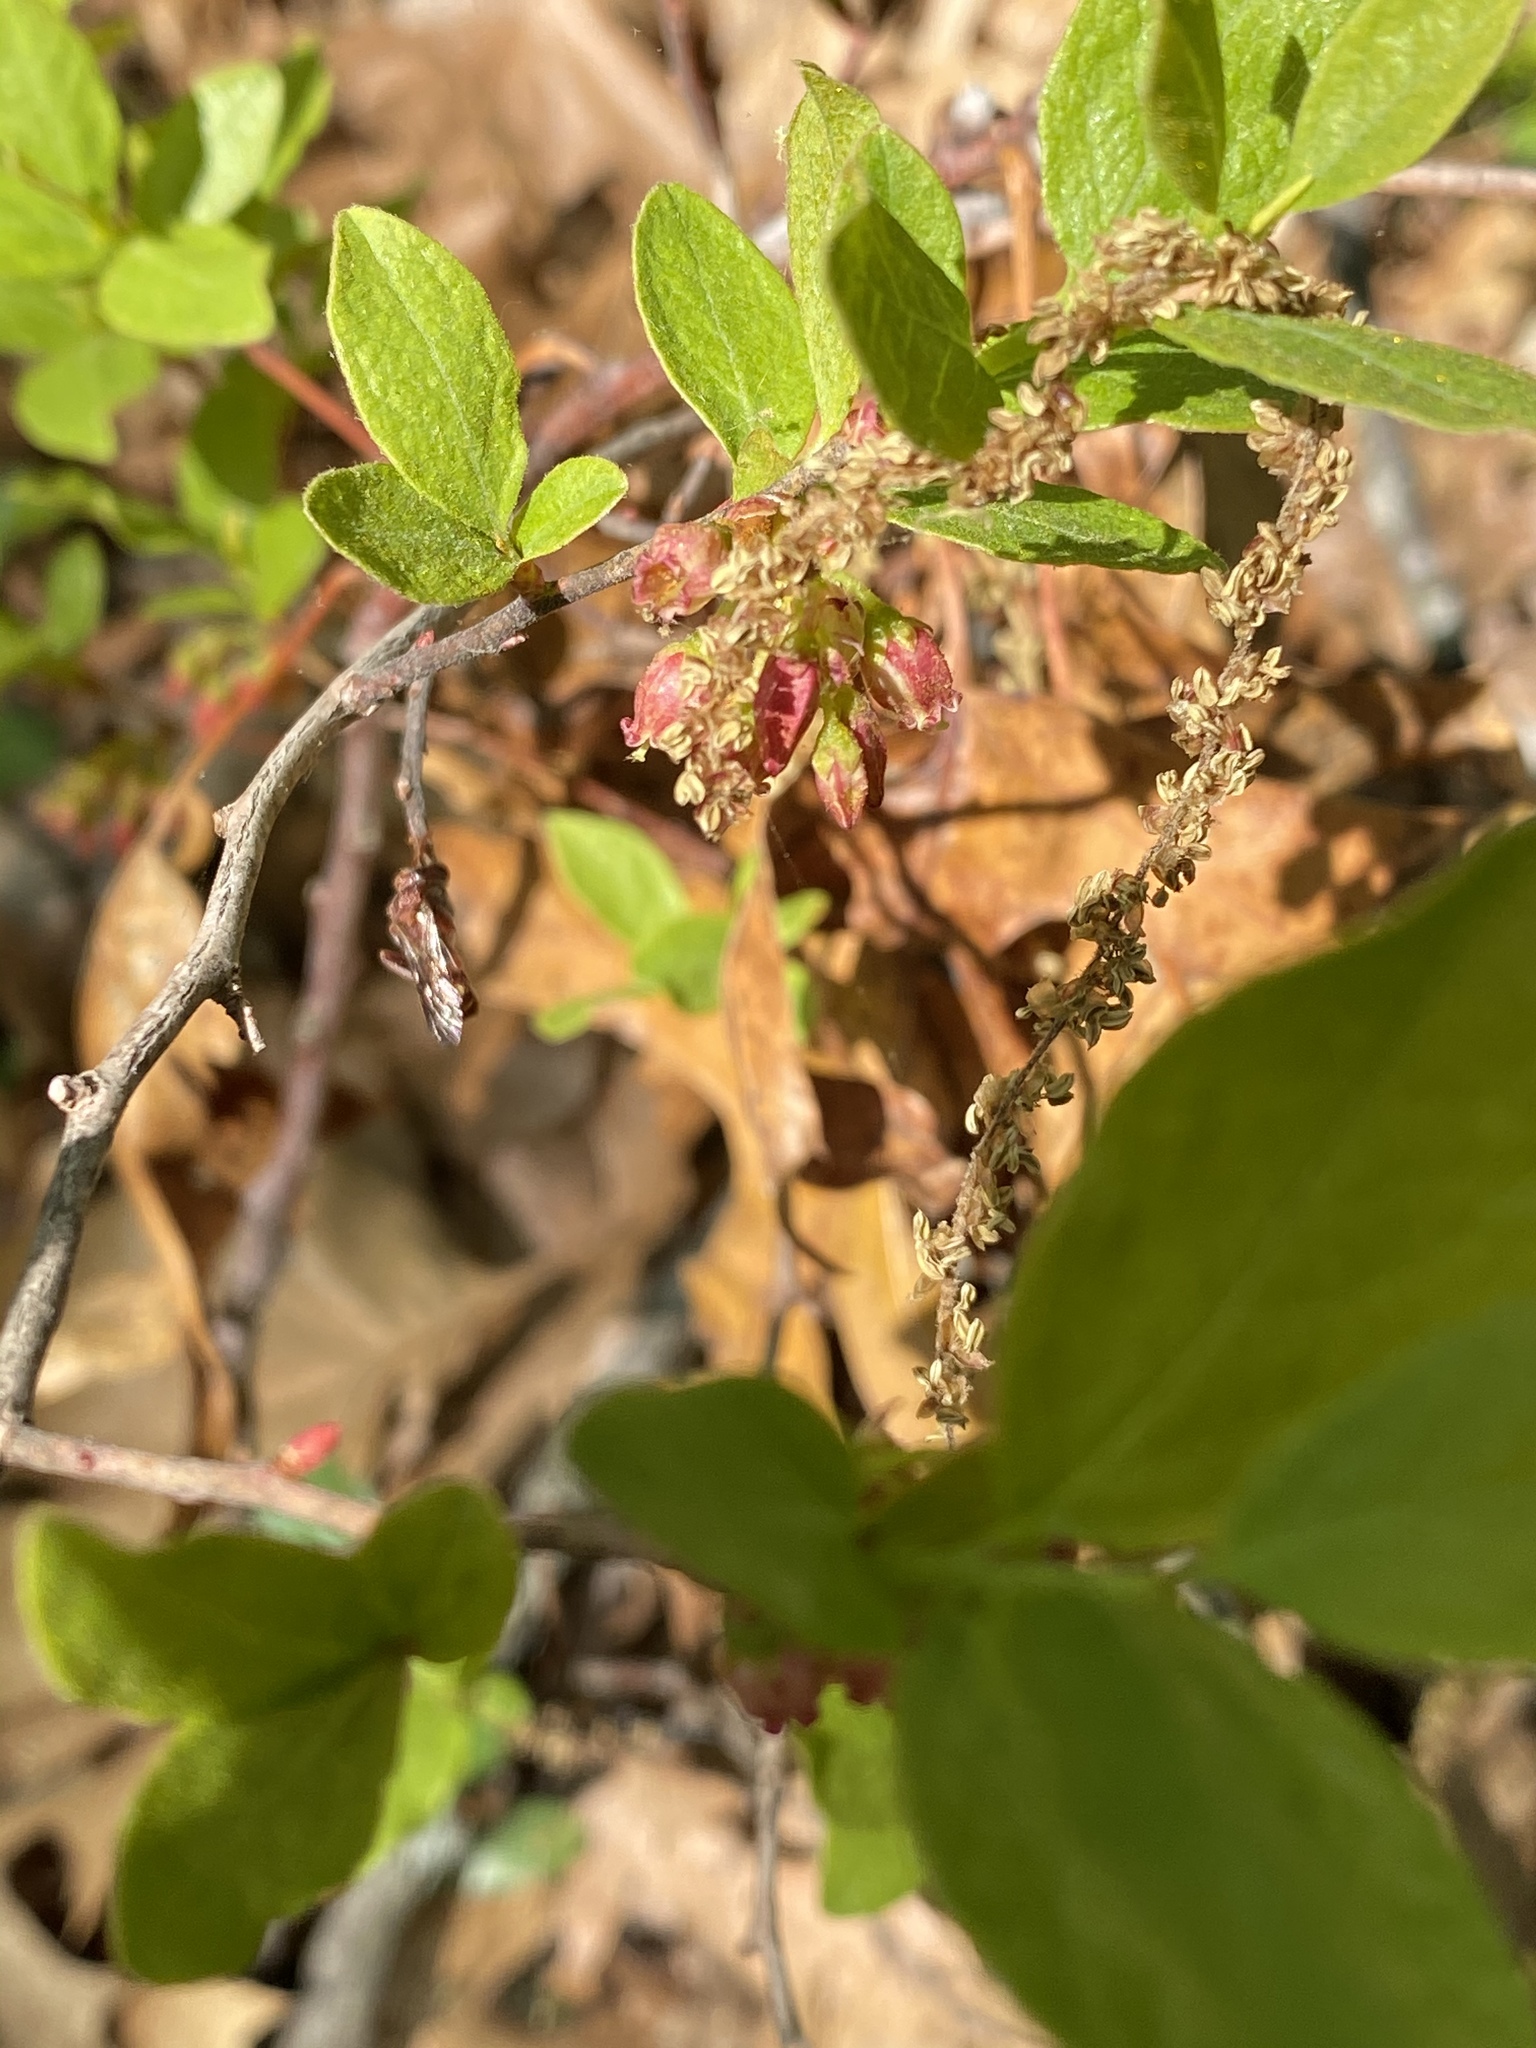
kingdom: Plantae
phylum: Tracheophyta
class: Magnoliopsida
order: Ericales
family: Ericaceae
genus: Gaylussacia
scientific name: Gaylussacia baccata
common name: Black huckleberry
